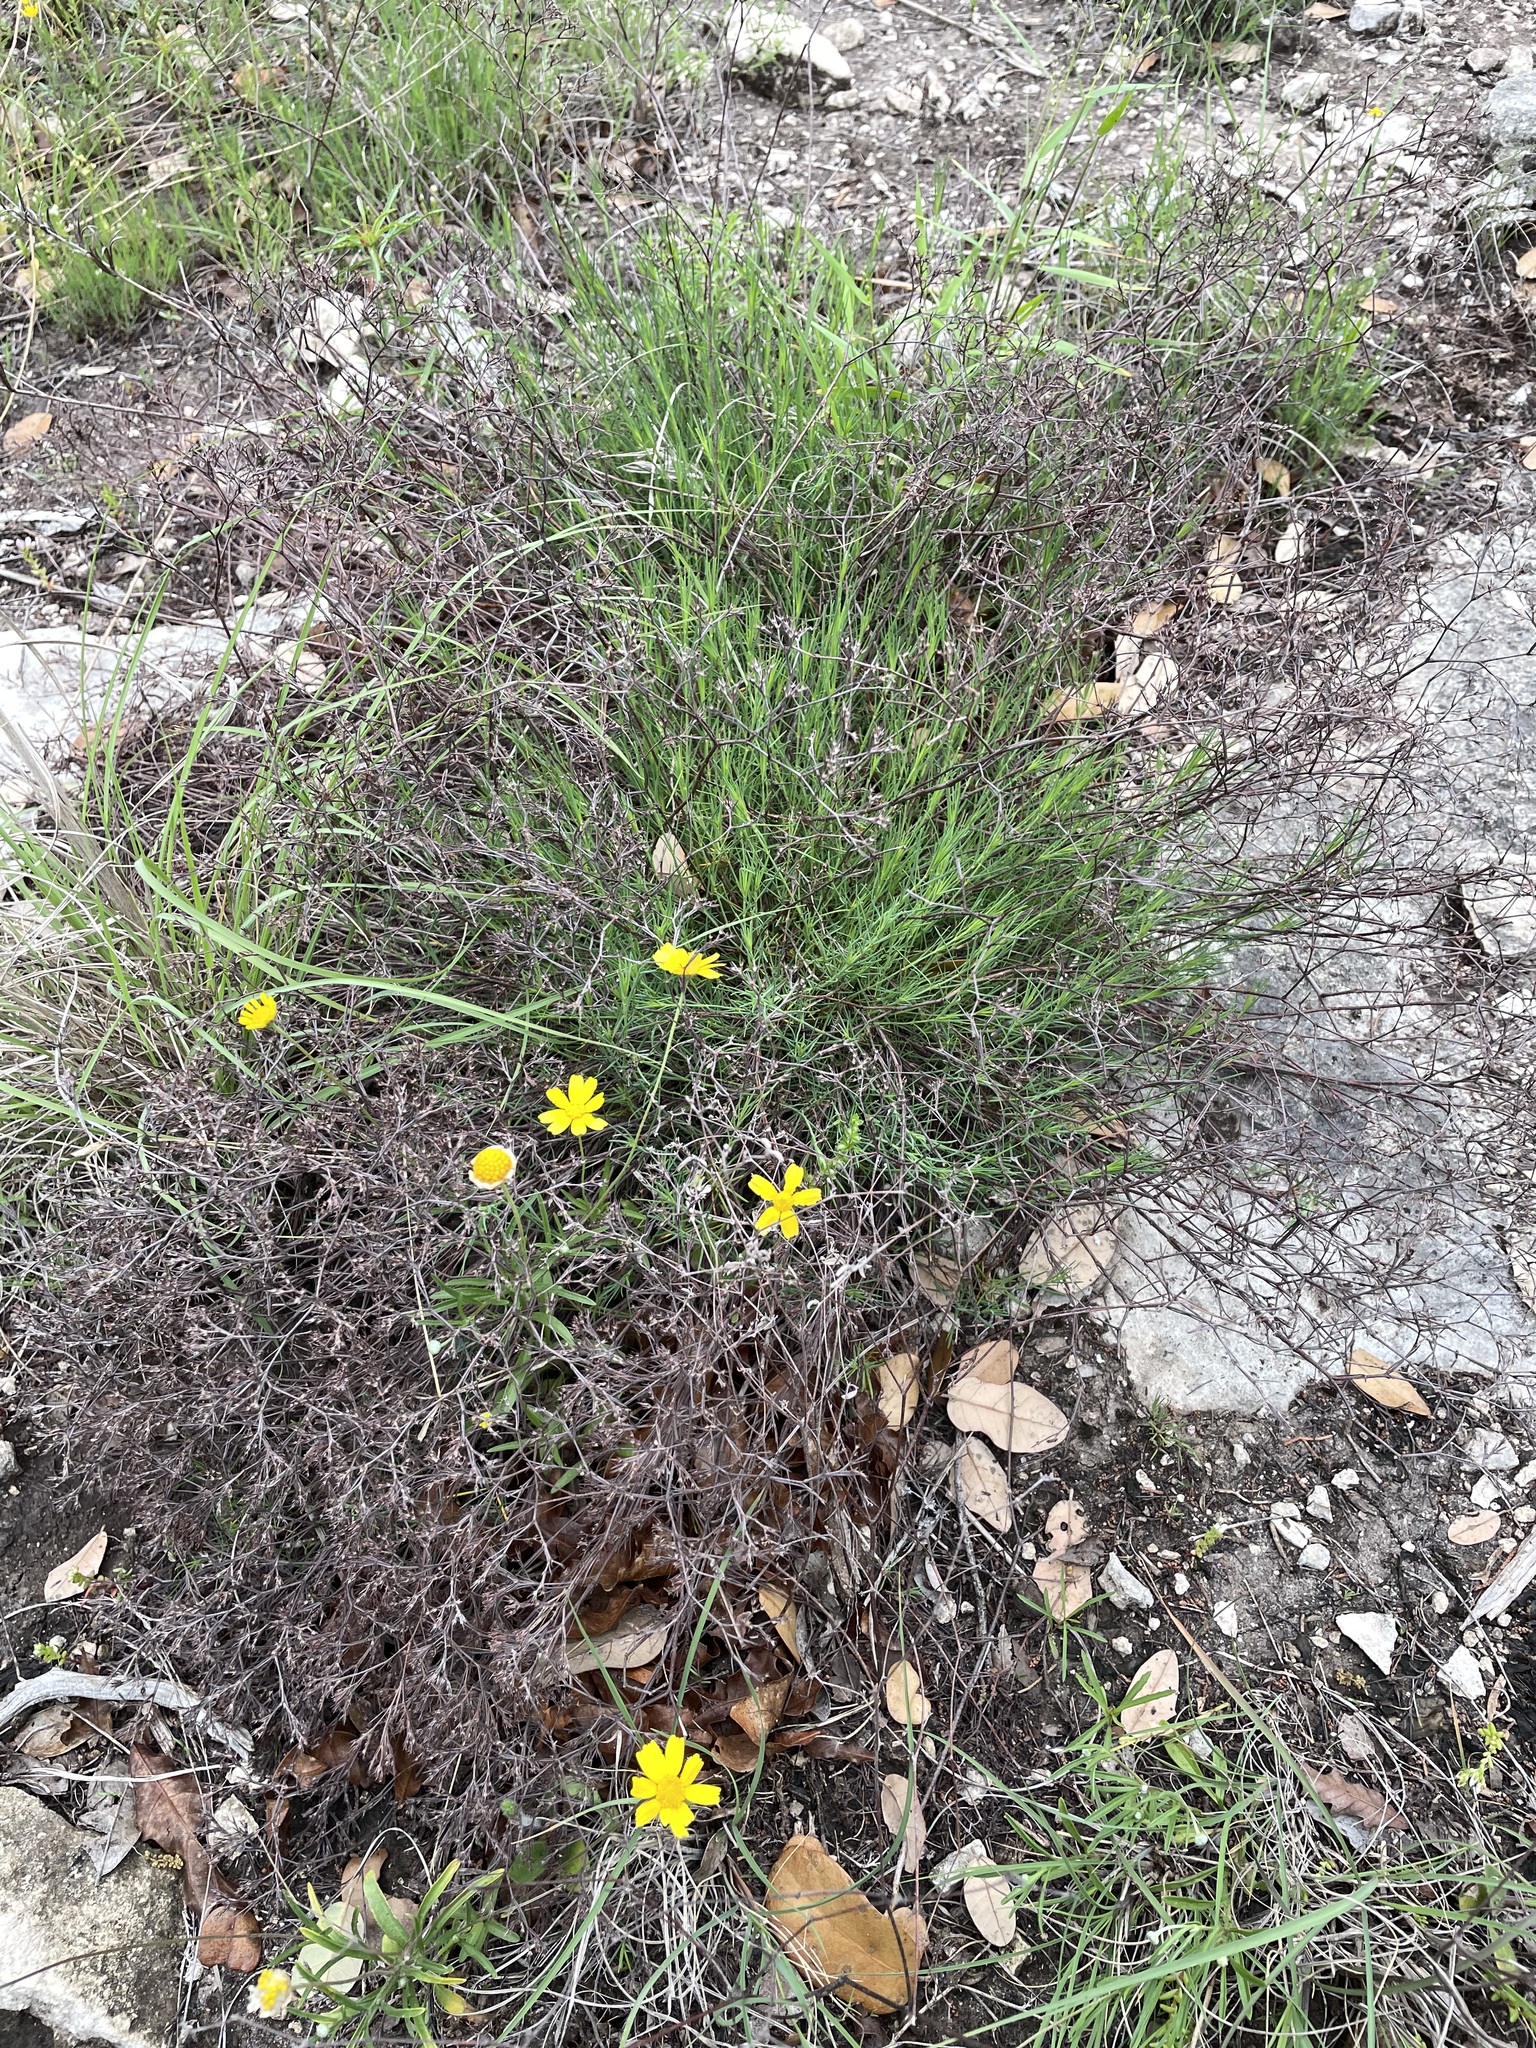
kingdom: Plantae
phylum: Tracheophyta
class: Magnoliopsida
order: Caryophyllales
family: Caryophyllaceae
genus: Paronychia
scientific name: Paronychia virginica
